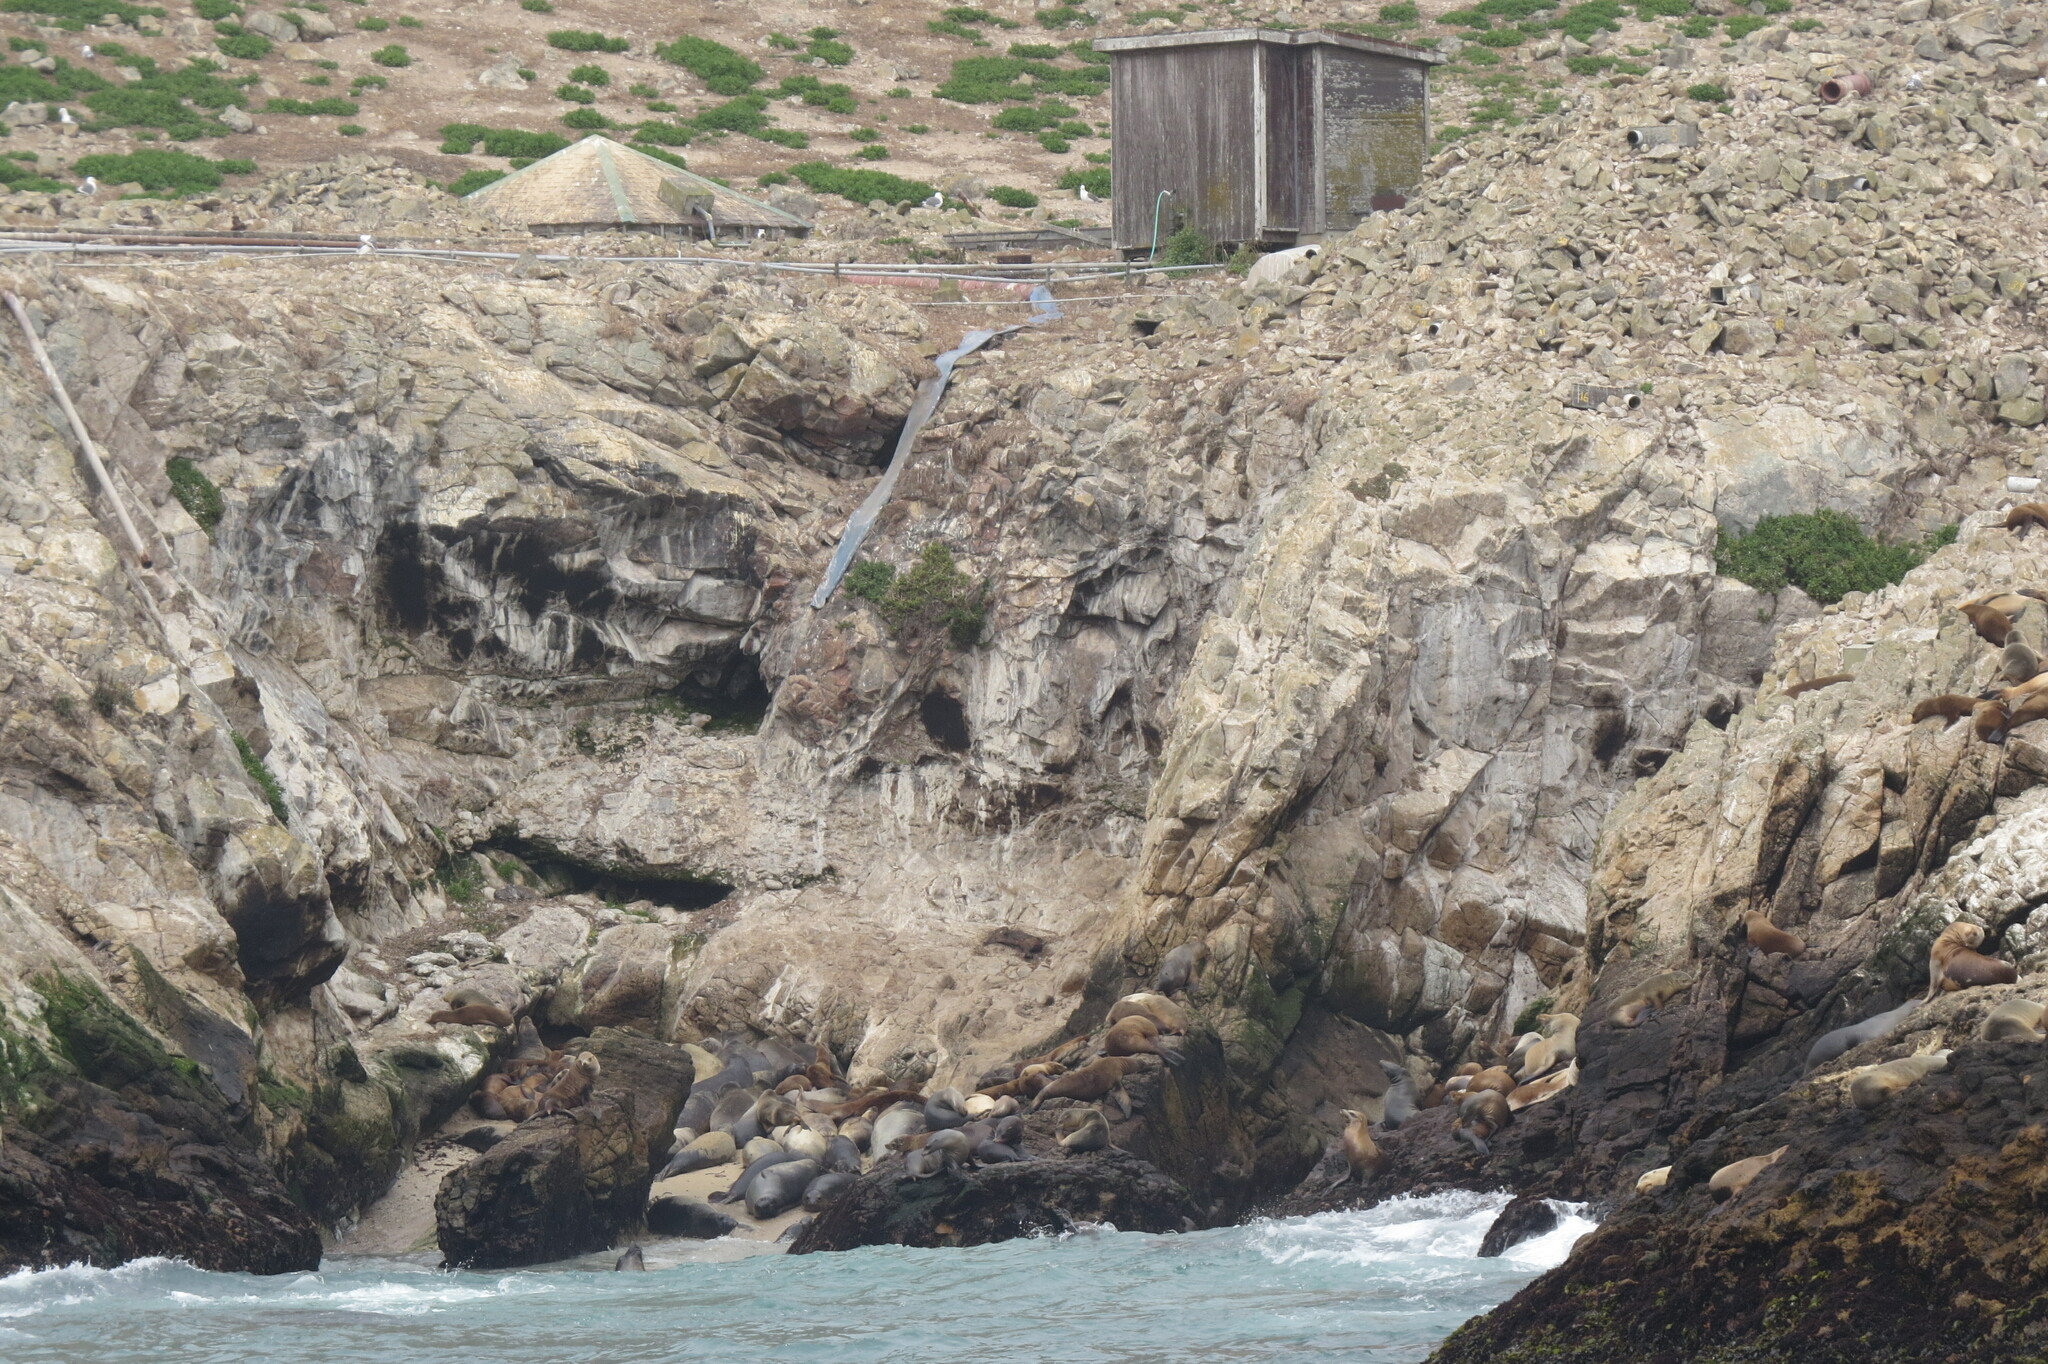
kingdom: Animalia
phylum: Chordata
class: Mammalia
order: Carnivora
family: Phocidae
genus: Mirounga
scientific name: Mirounga angustirostris
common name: Northern elephant seal
